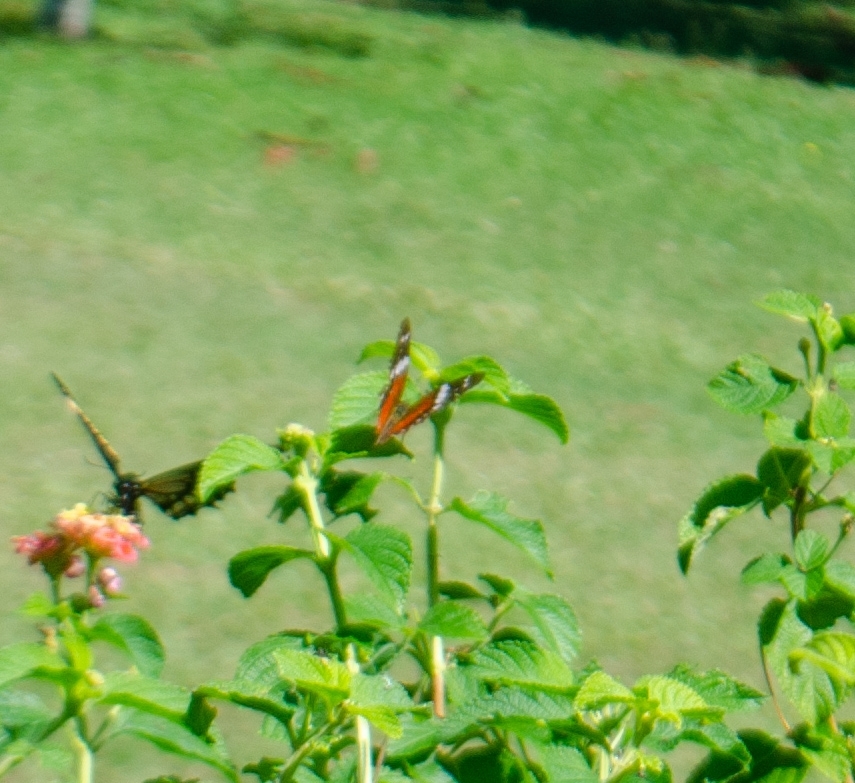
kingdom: Animalia
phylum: Arthropoda
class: Insecta
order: Lepidoptera
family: Nymphalidae
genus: Anartia
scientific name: Anartia amathea
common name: Red peacock
